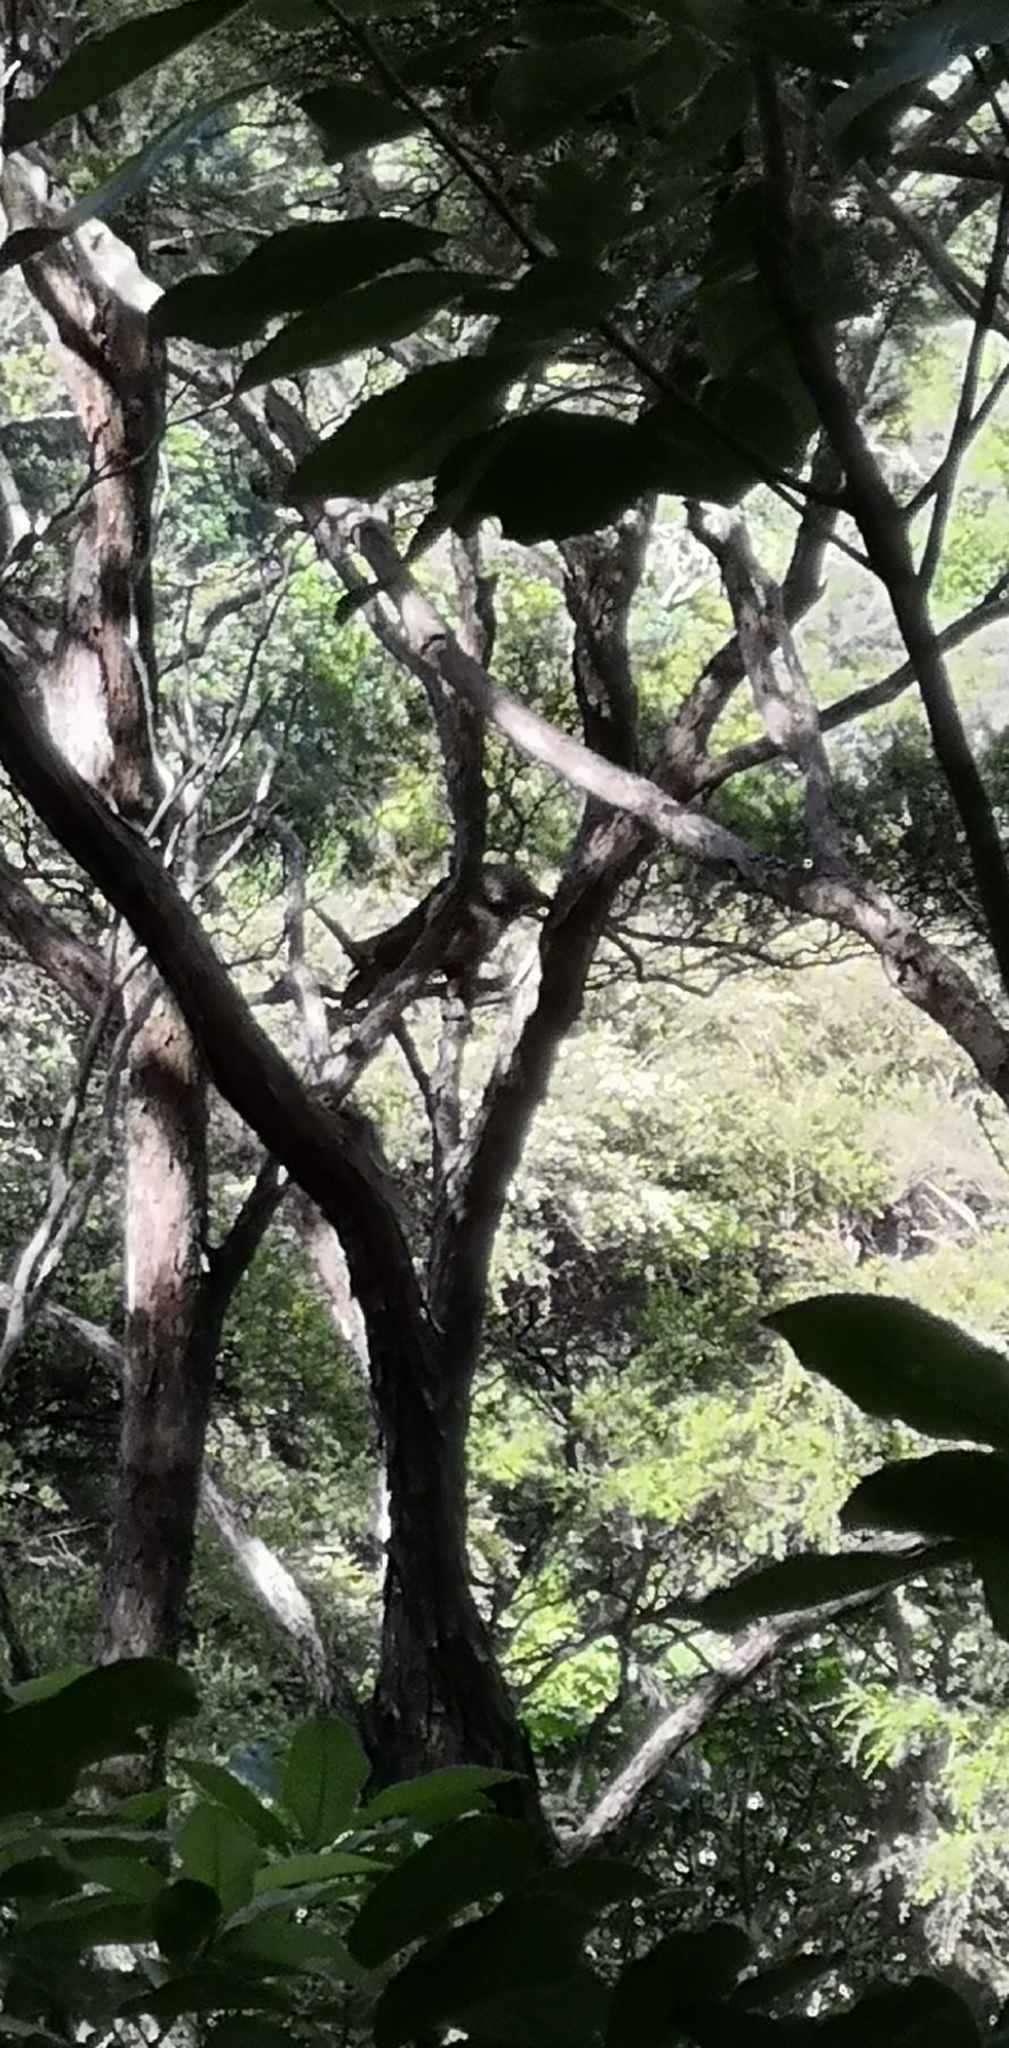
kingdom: Animalia
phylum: Chordata
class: Aves
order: Psittaciformes
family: Psittacidae
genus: Nestor
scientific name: Nestor meridionalis
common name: New zealand kaka
